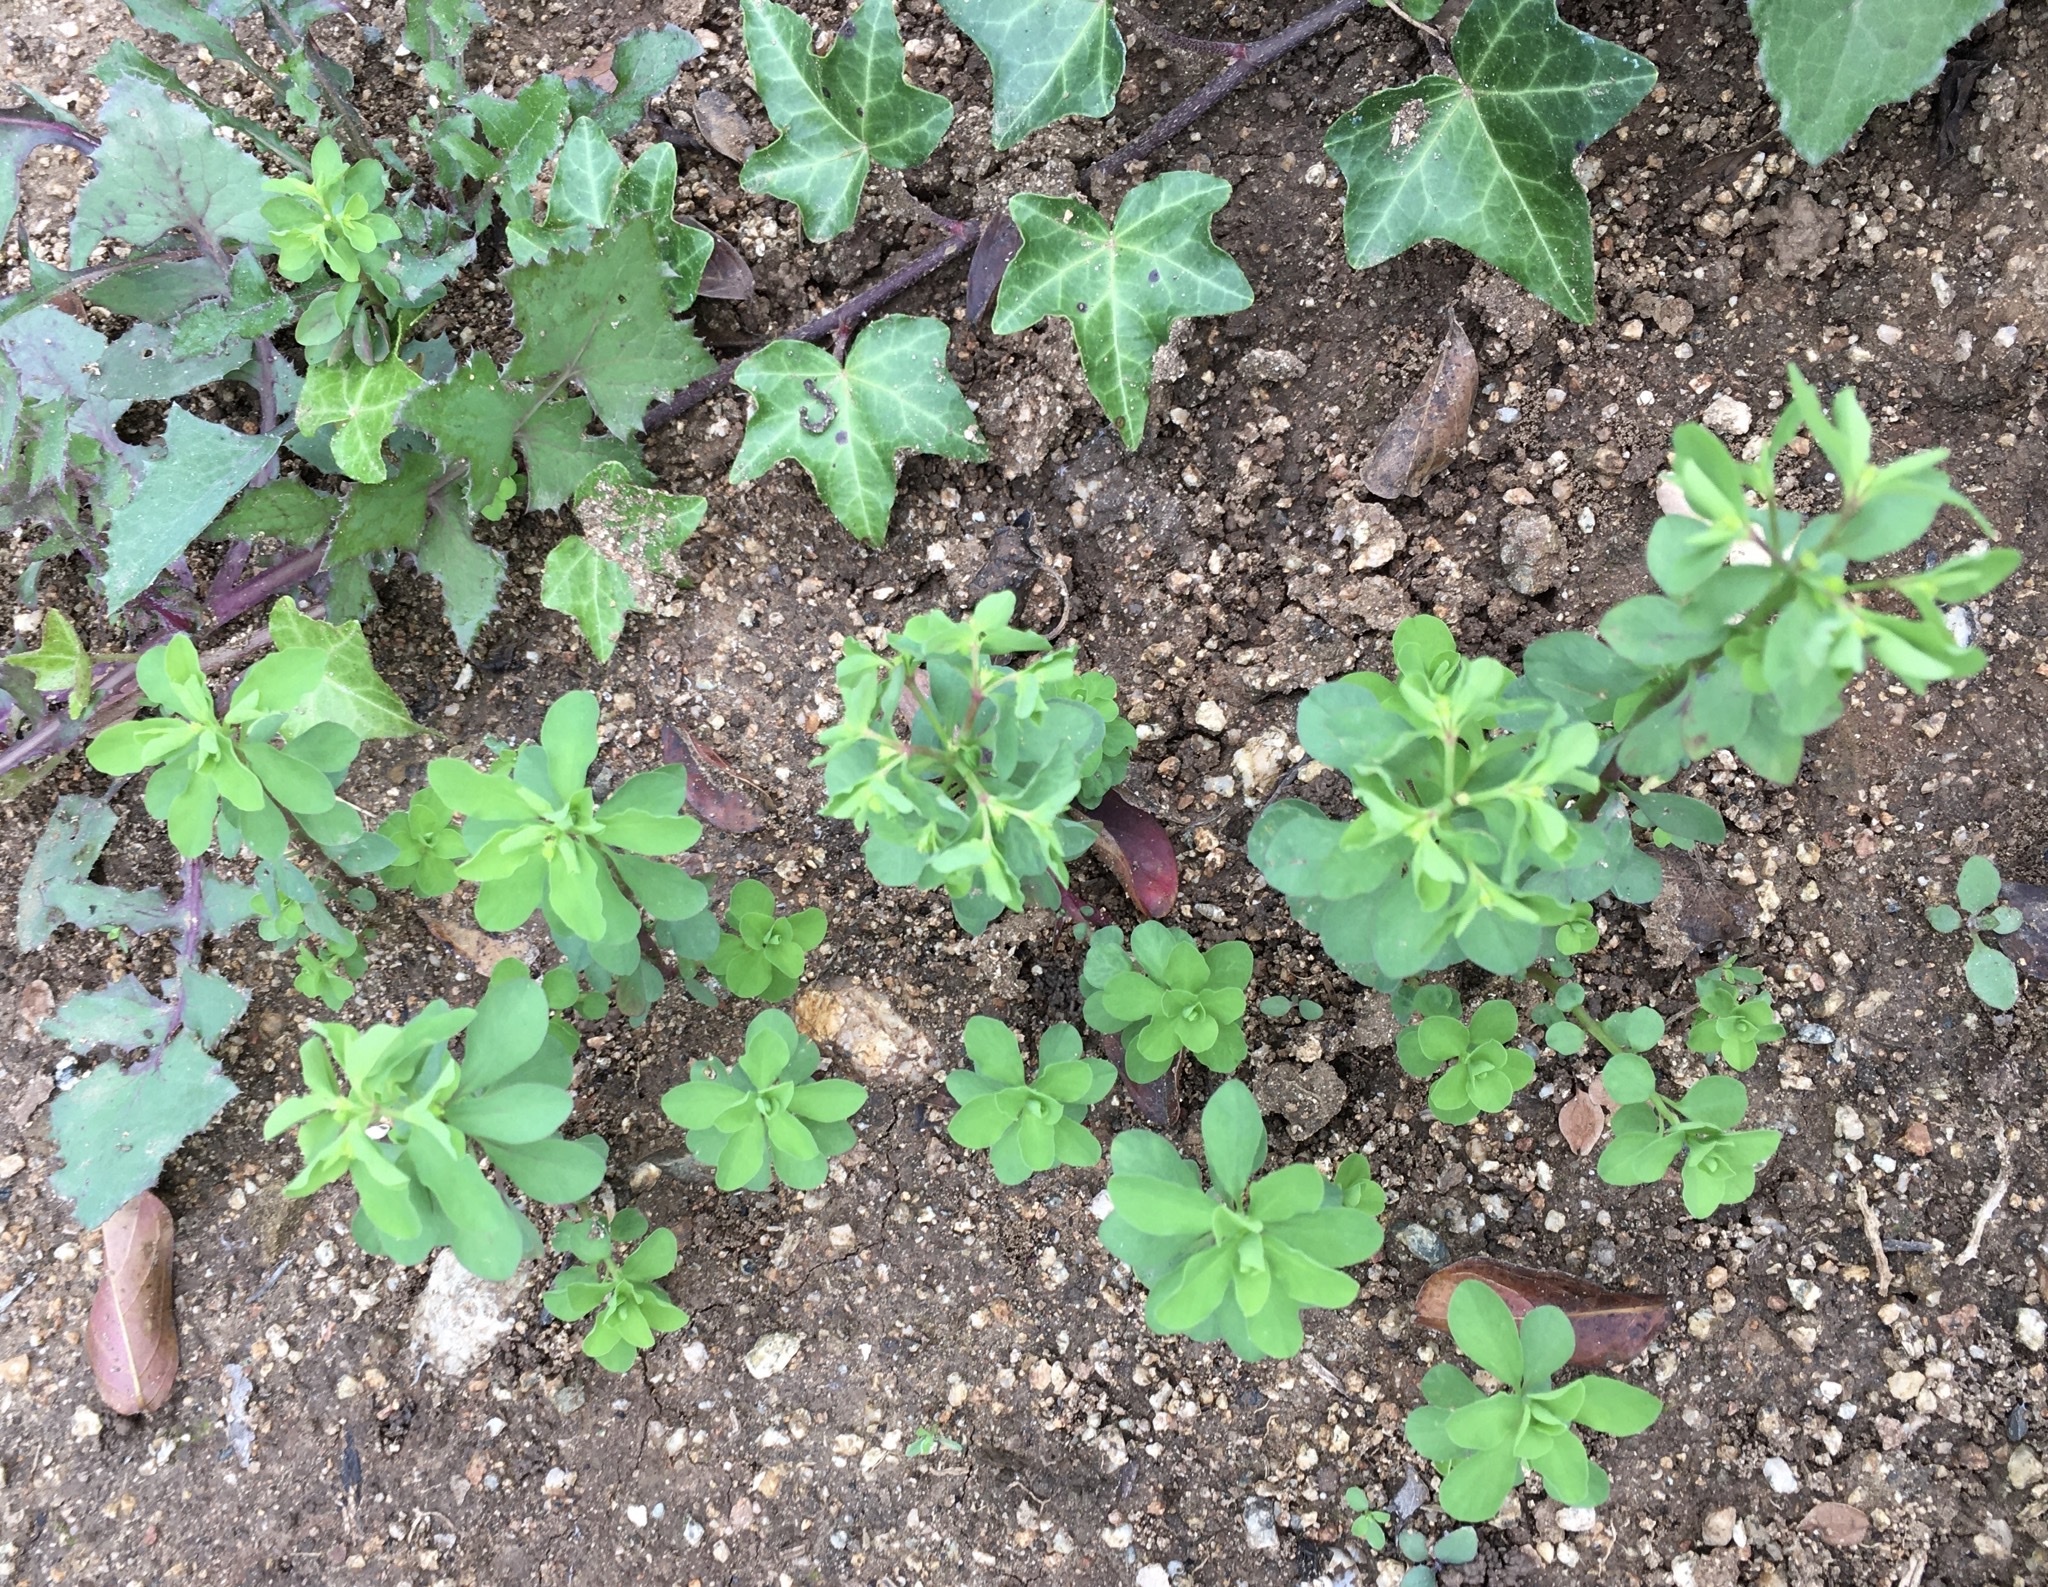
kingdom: Plantae
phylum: Tracheophyta
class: Magnoliopsida
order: Malpighiales
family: Euphorbiaceae
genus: Euphorbia
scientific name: Euphorbia peplus
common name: Petty spurge
